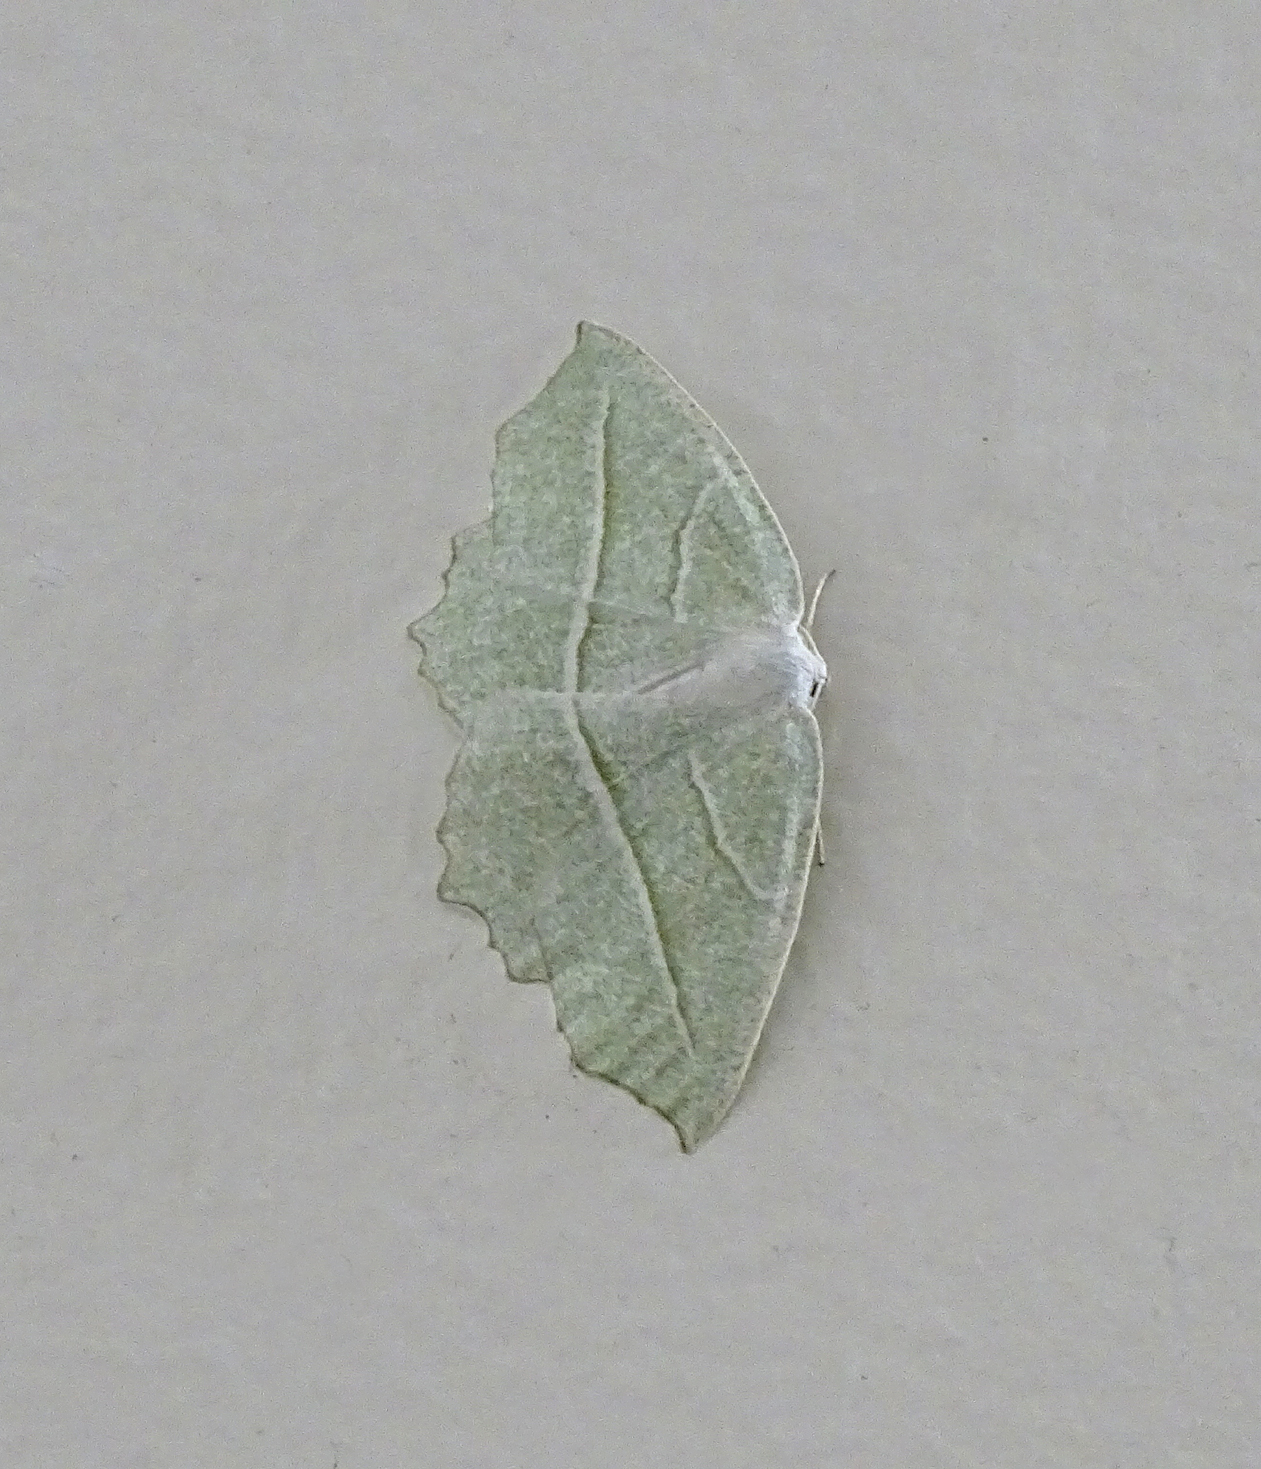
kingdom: Animalia
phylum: Arthropoda
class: Insecta
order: Lepidoptera
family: Geometridae
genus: Campaea
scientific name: Campaea perlata
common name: Fringed looper
